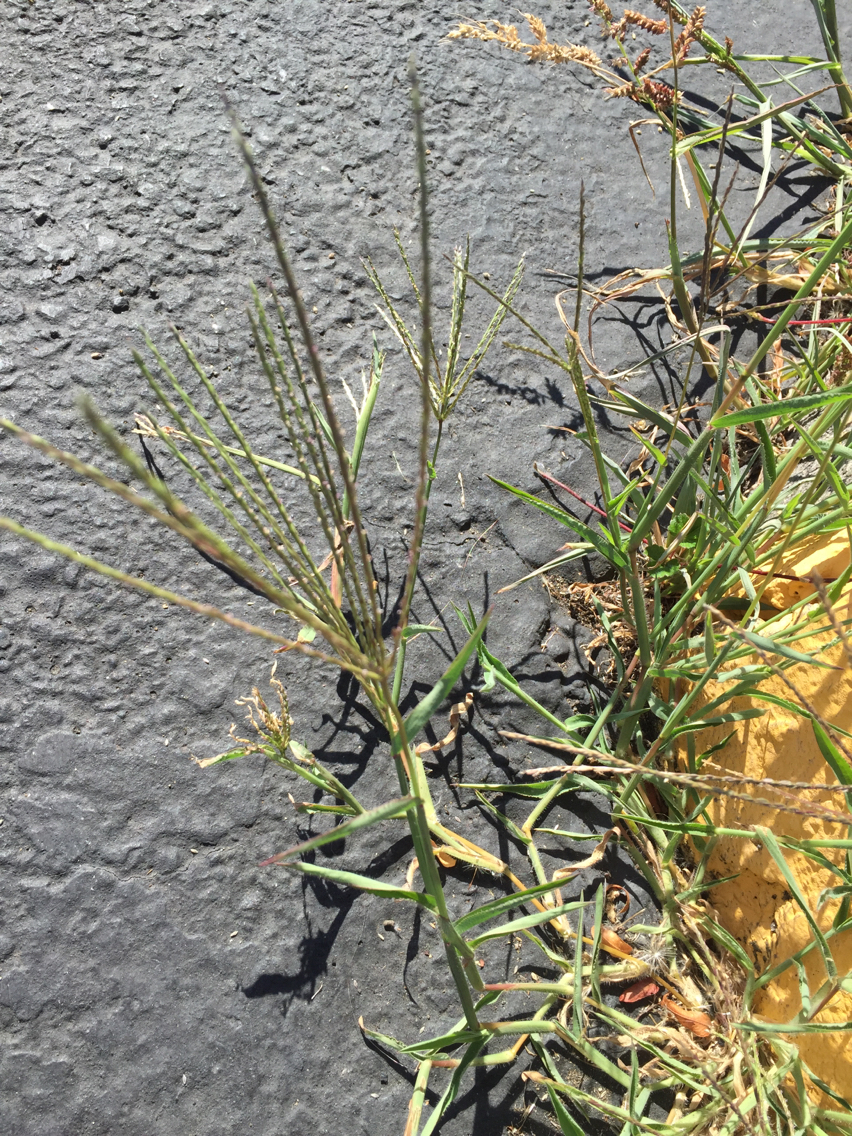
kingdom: Plantae
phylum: Tracheophyta
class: Liliopsida
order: Poales
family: Poaceae
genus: Digitaria
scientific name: Digitaria sanguinalis
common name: Hairy crabgrass
